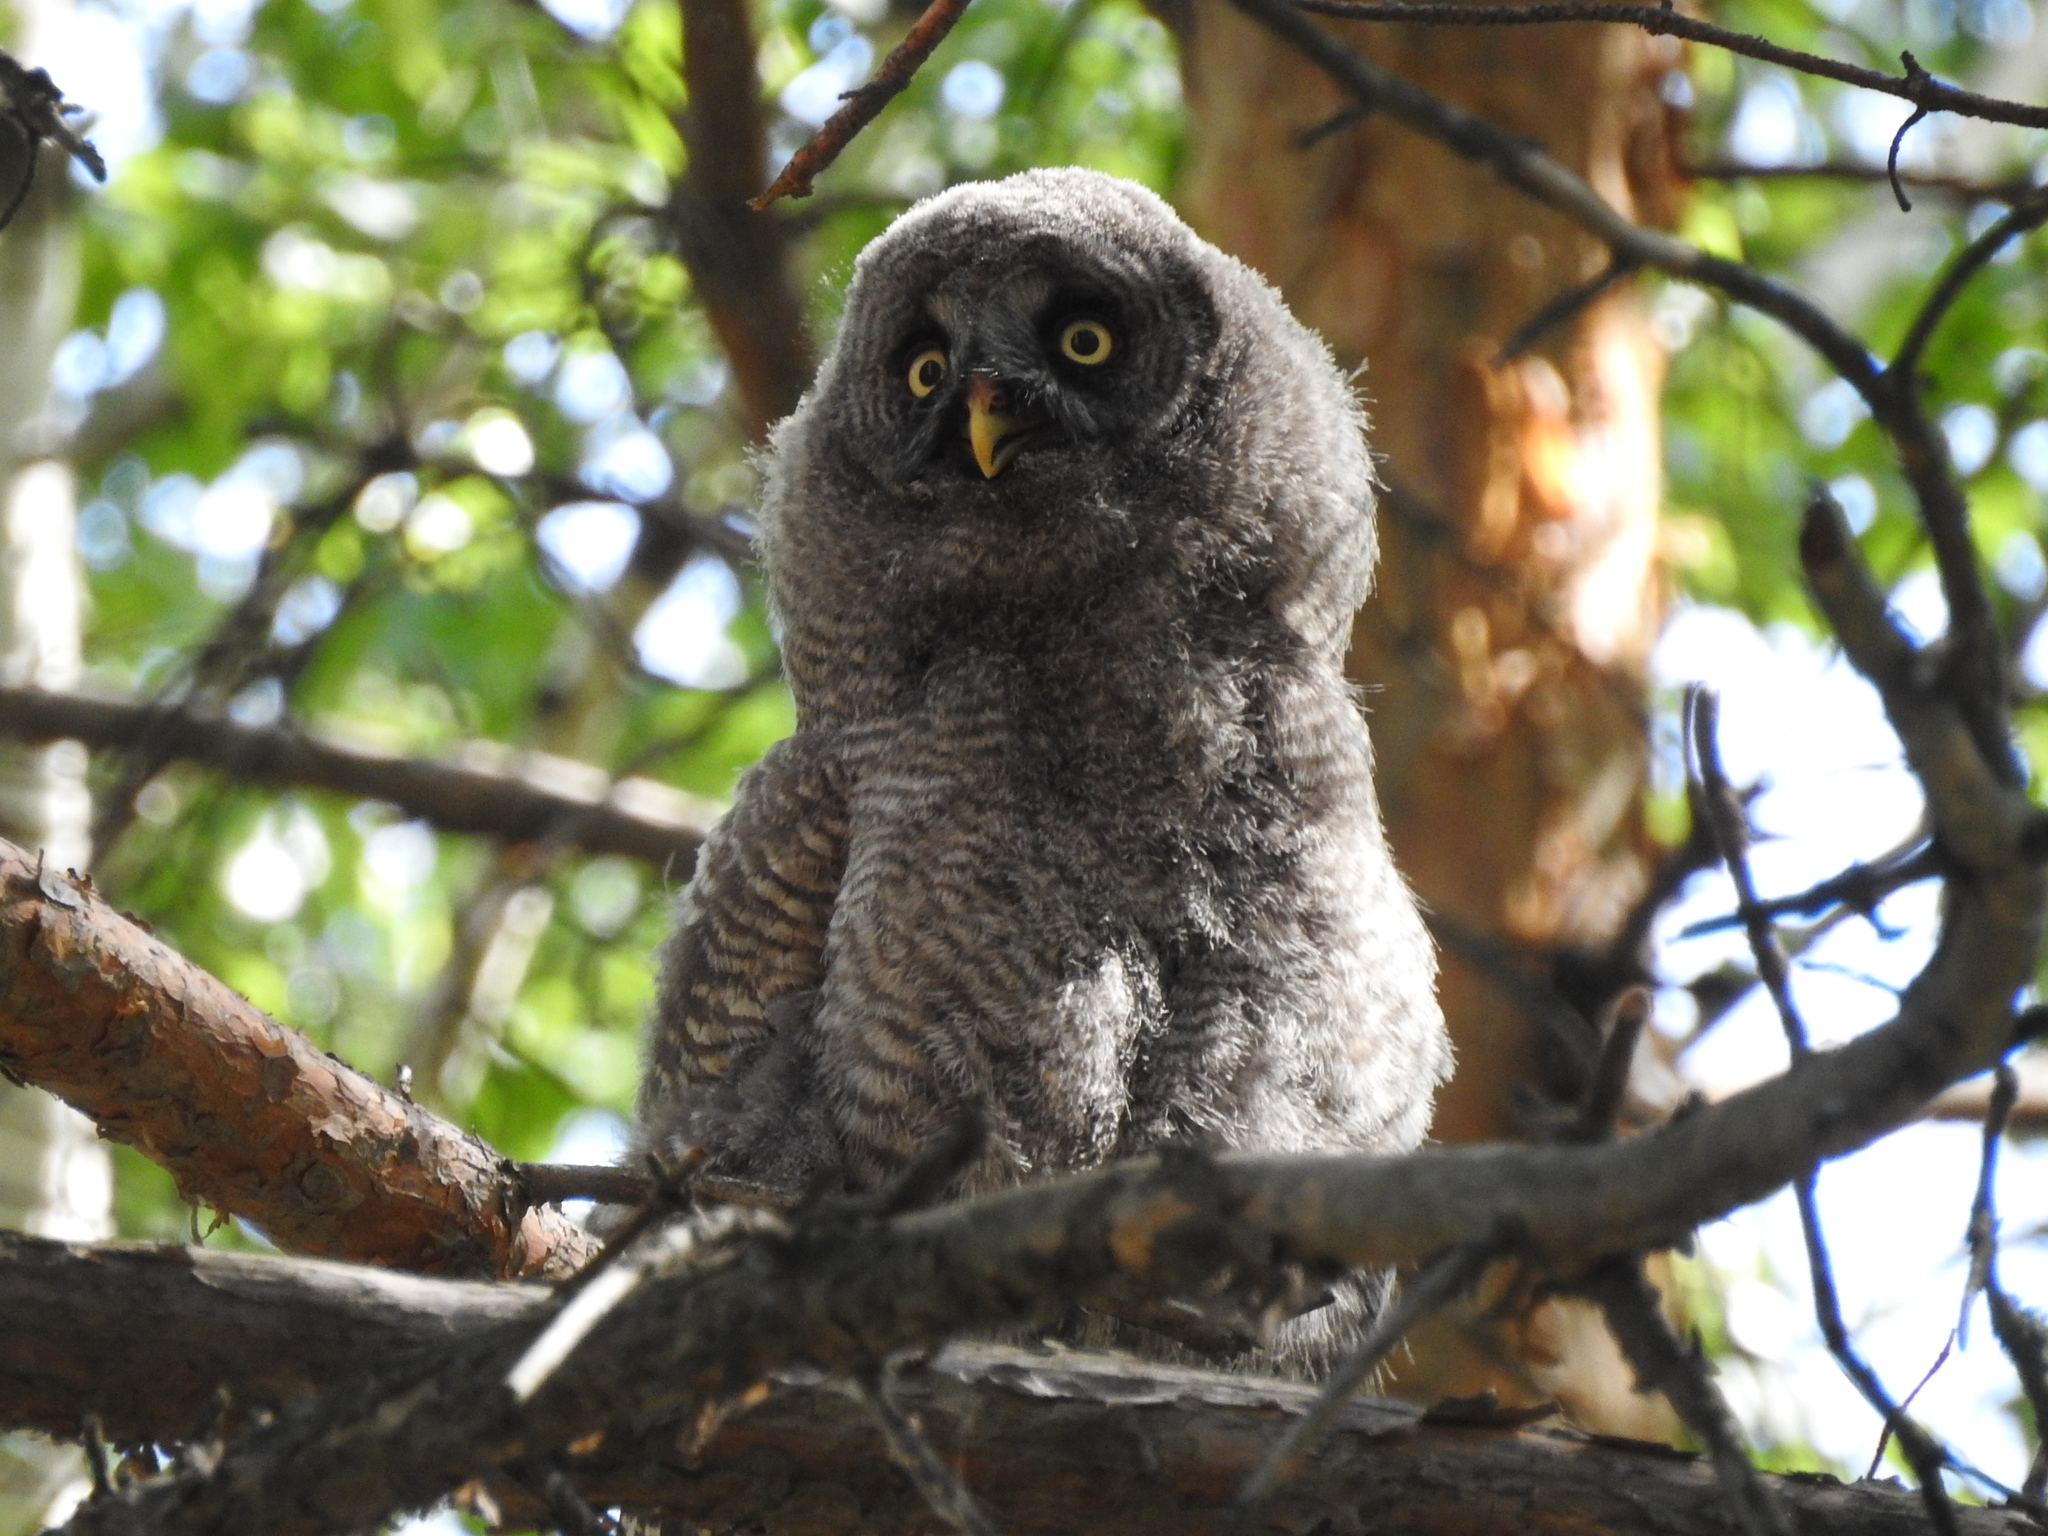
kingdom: Animalia
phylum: Chordata
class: Aves
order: Strigiformes
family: Strigidae
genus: Strix
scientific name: Strix nebulosa
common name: Great grey owl
